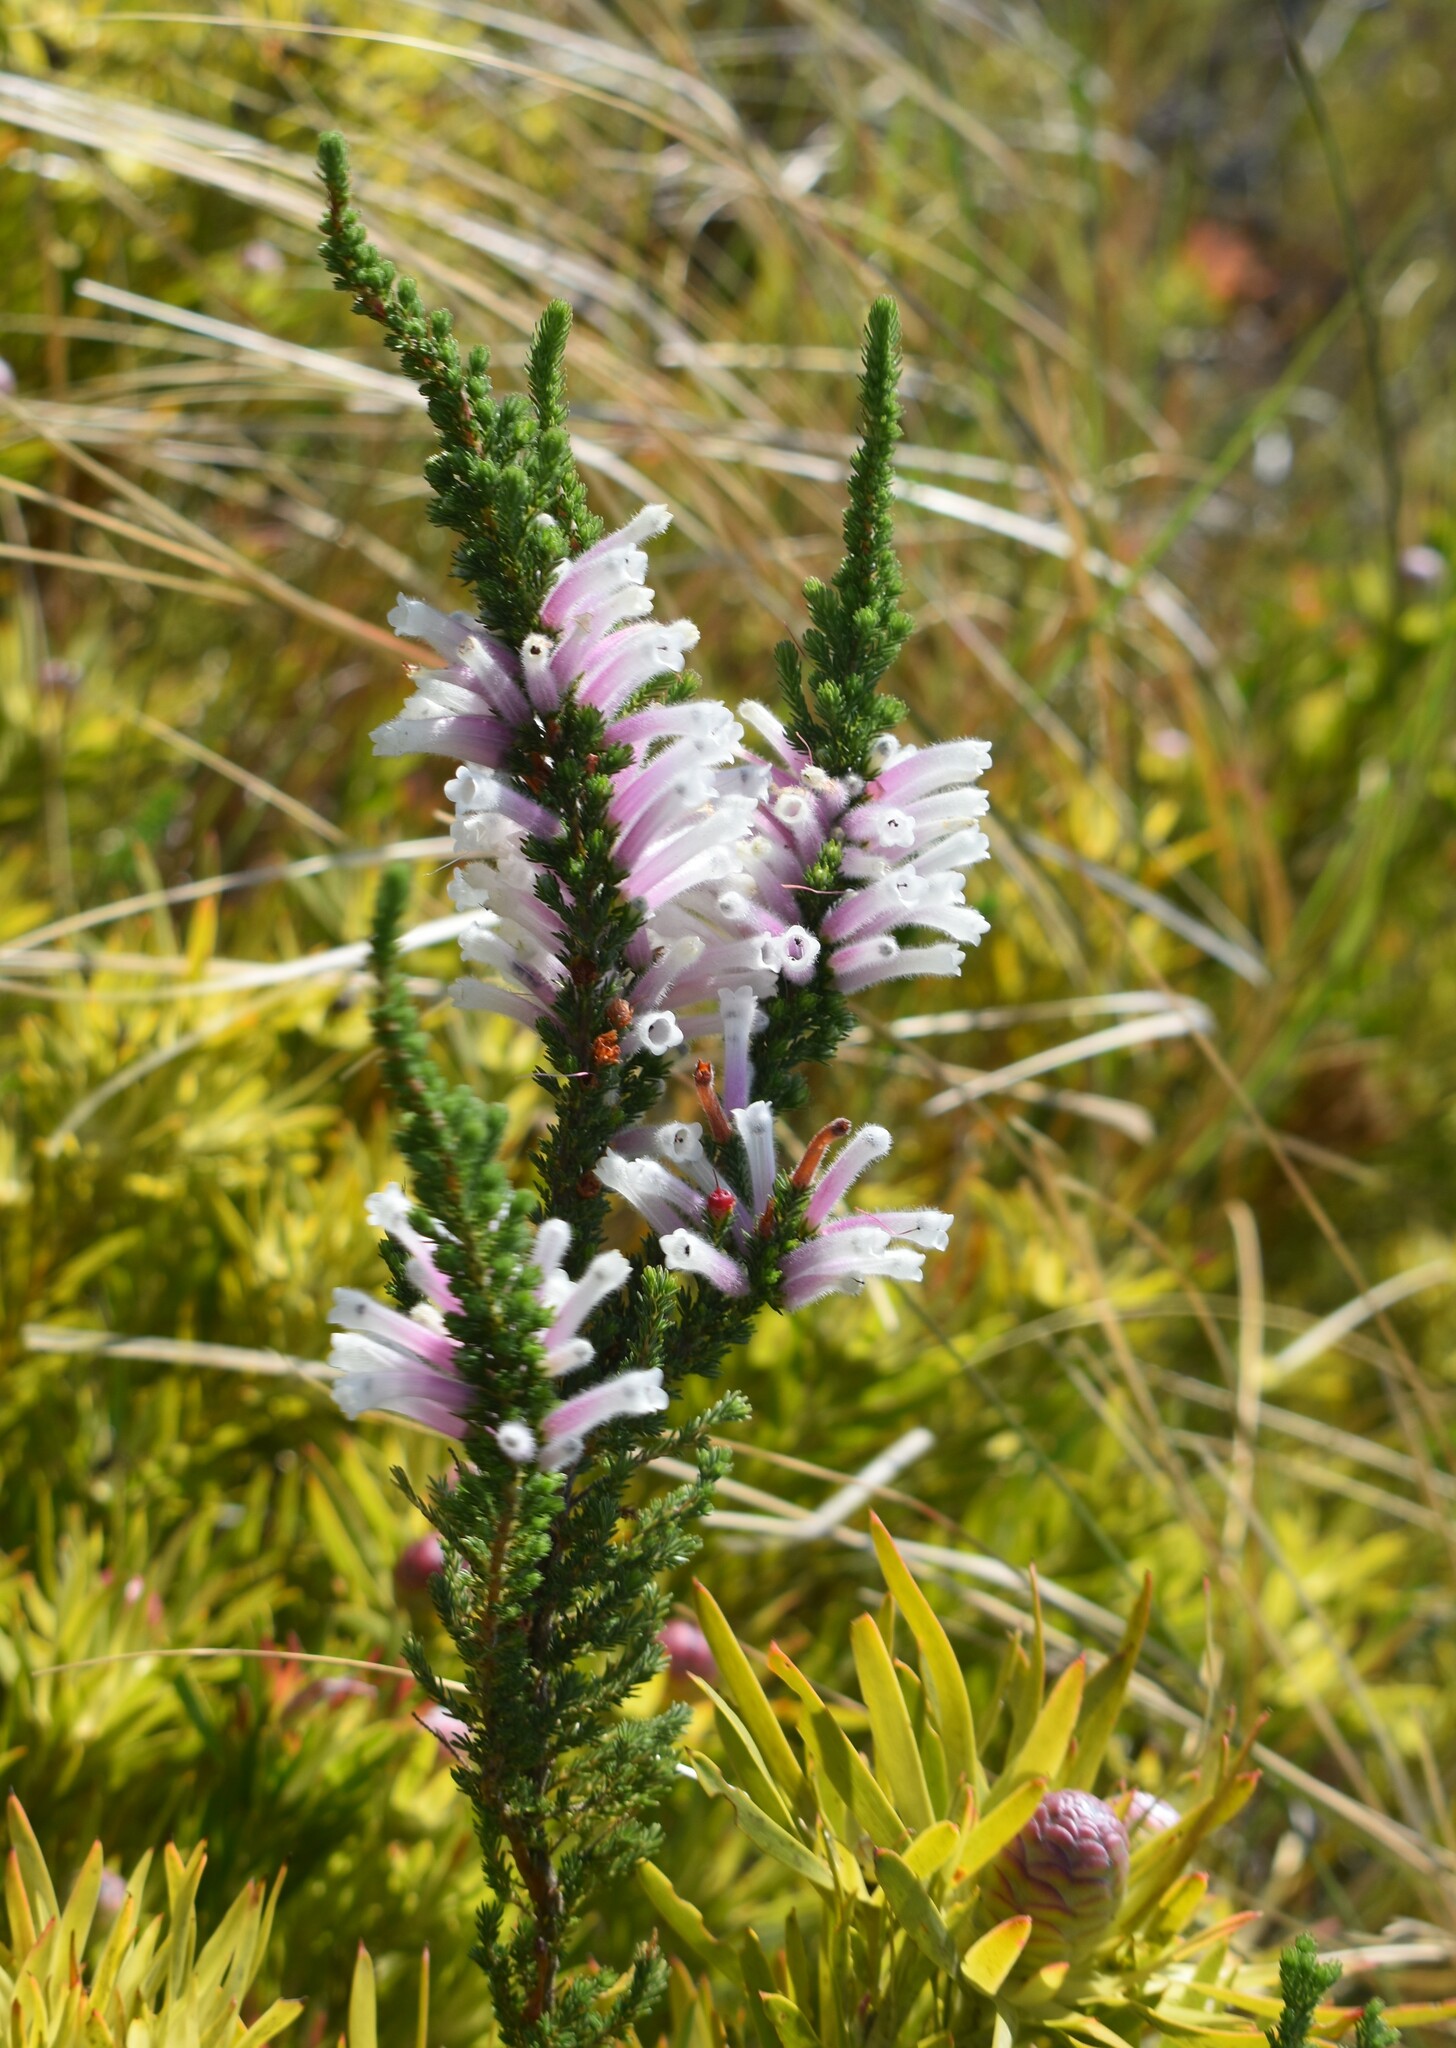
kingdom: Plantae
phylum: Tracheophyta
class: Magnoliopsida
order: Ericales
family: Ericaceae
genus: Erica
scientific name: Erica perspicua
